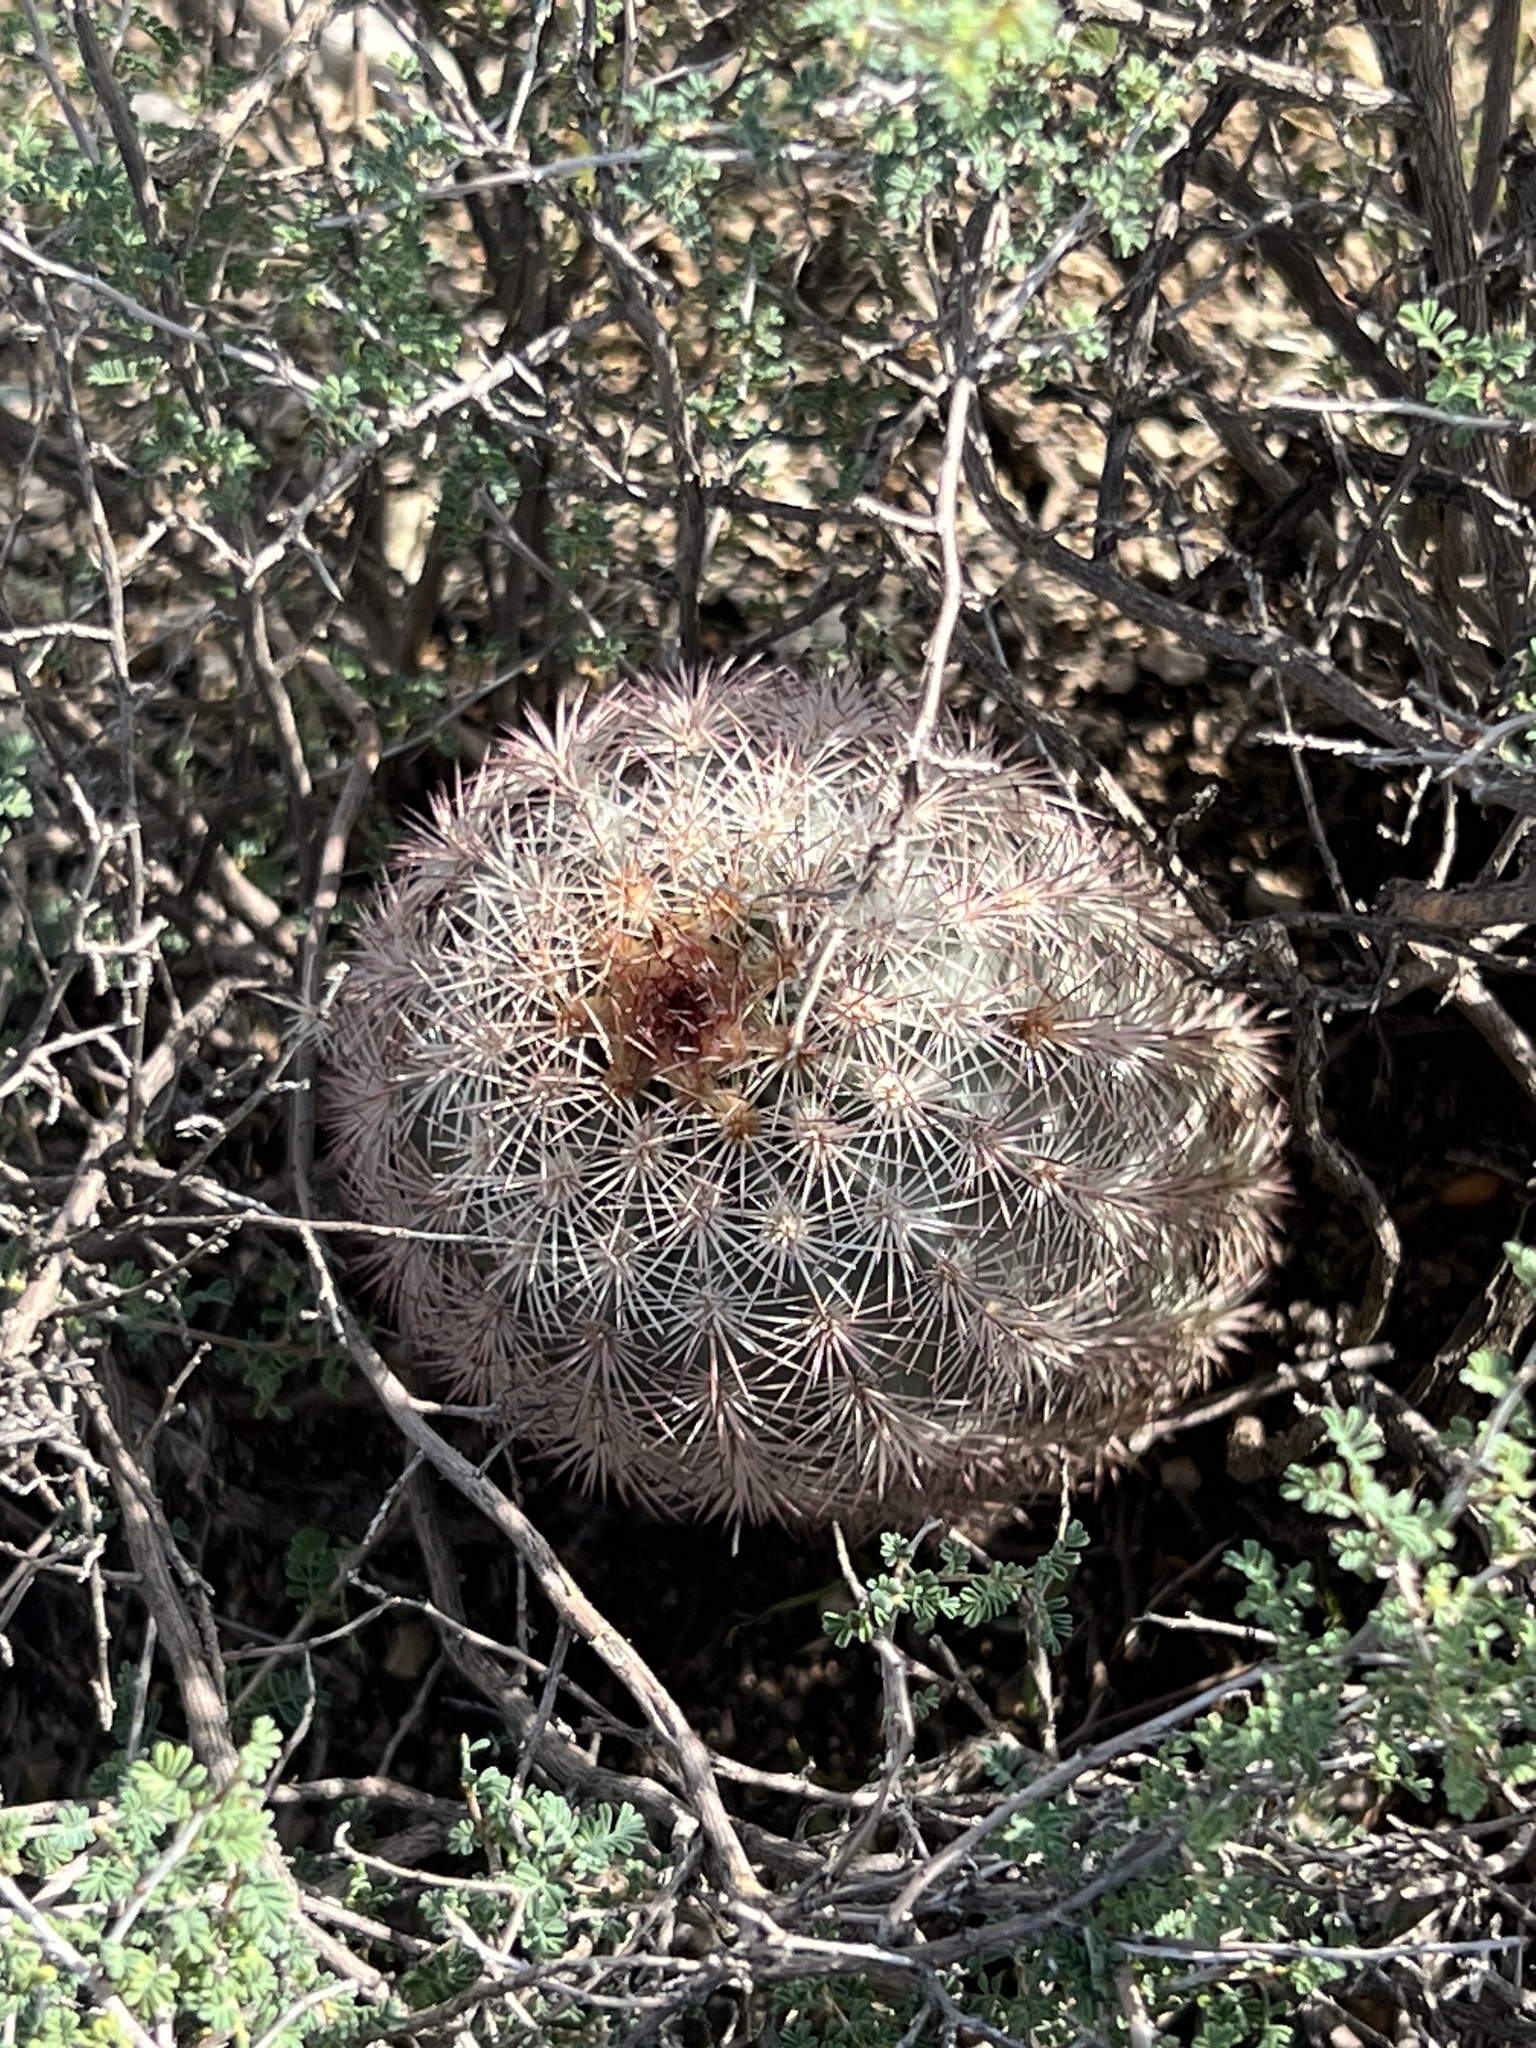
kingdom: Plantae
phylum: Tracheophyta
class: Magnoliopsida
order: Caryophyllales
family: Cactaceae
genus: Echinocereus
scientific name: Echinocereus dasyacanthus
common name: Spiny hedgehog cactus
